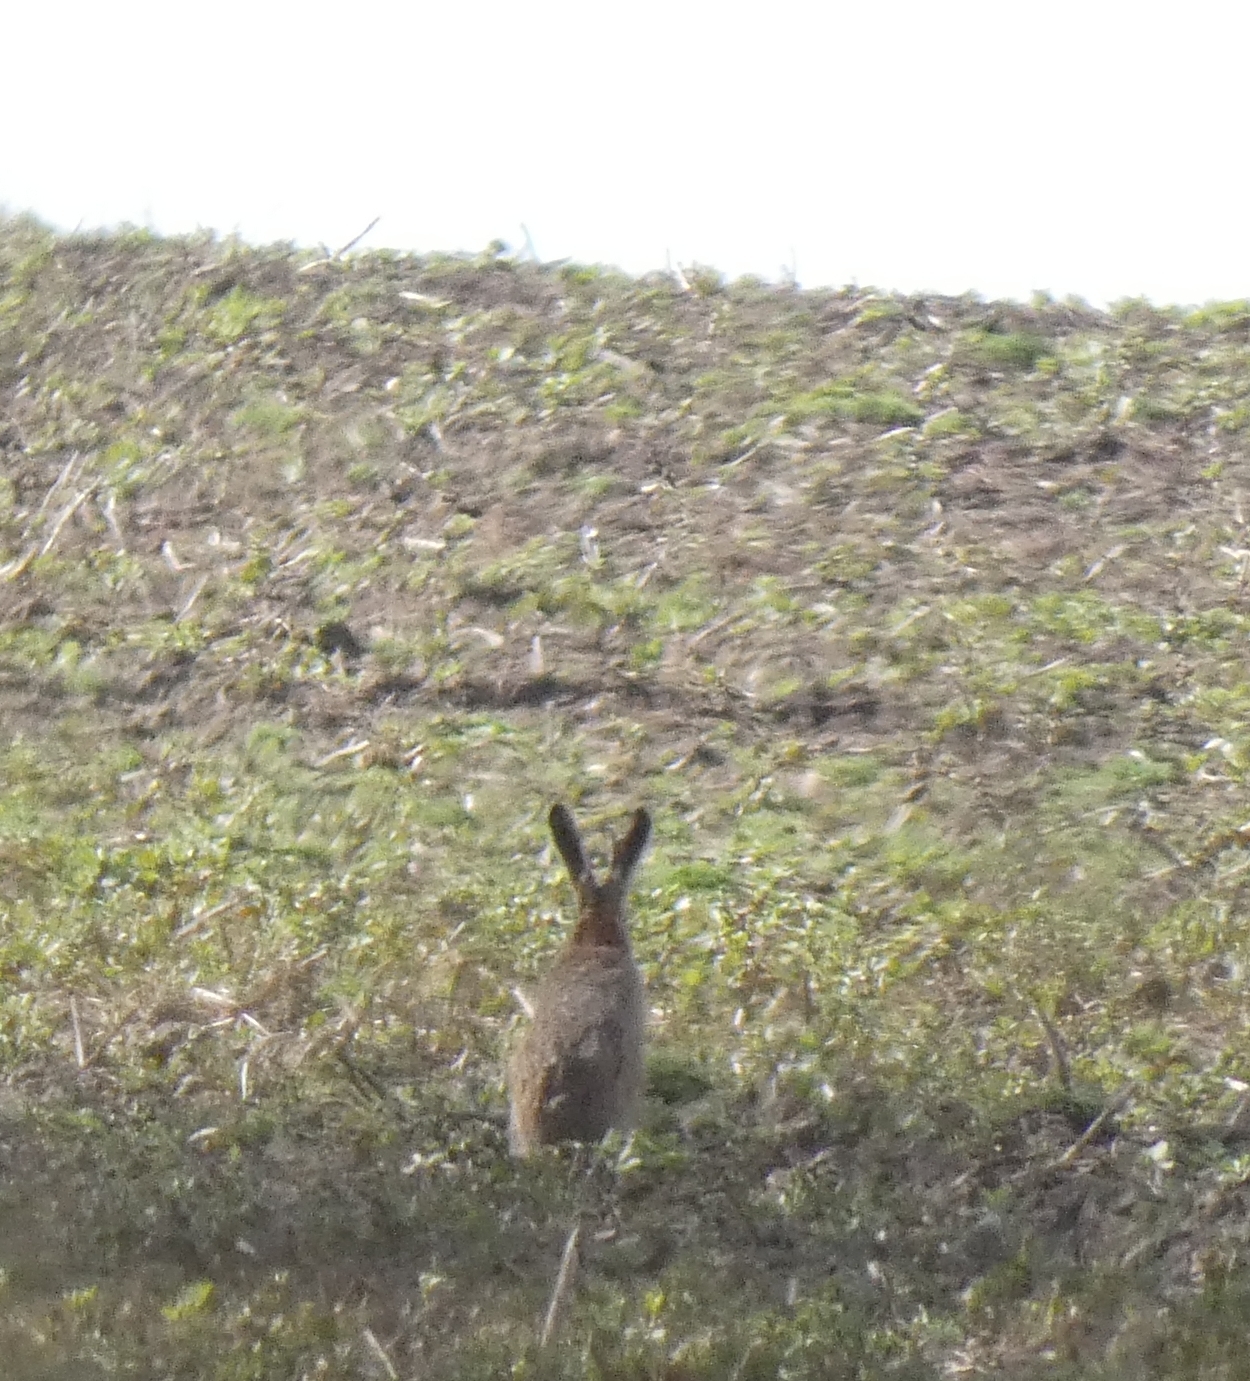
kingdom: Animalia
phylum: Chordata
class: Mammalia
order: Lagomorpha
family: Leporidae
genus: Lepus
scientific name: Lepus europaeus
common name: European hare
